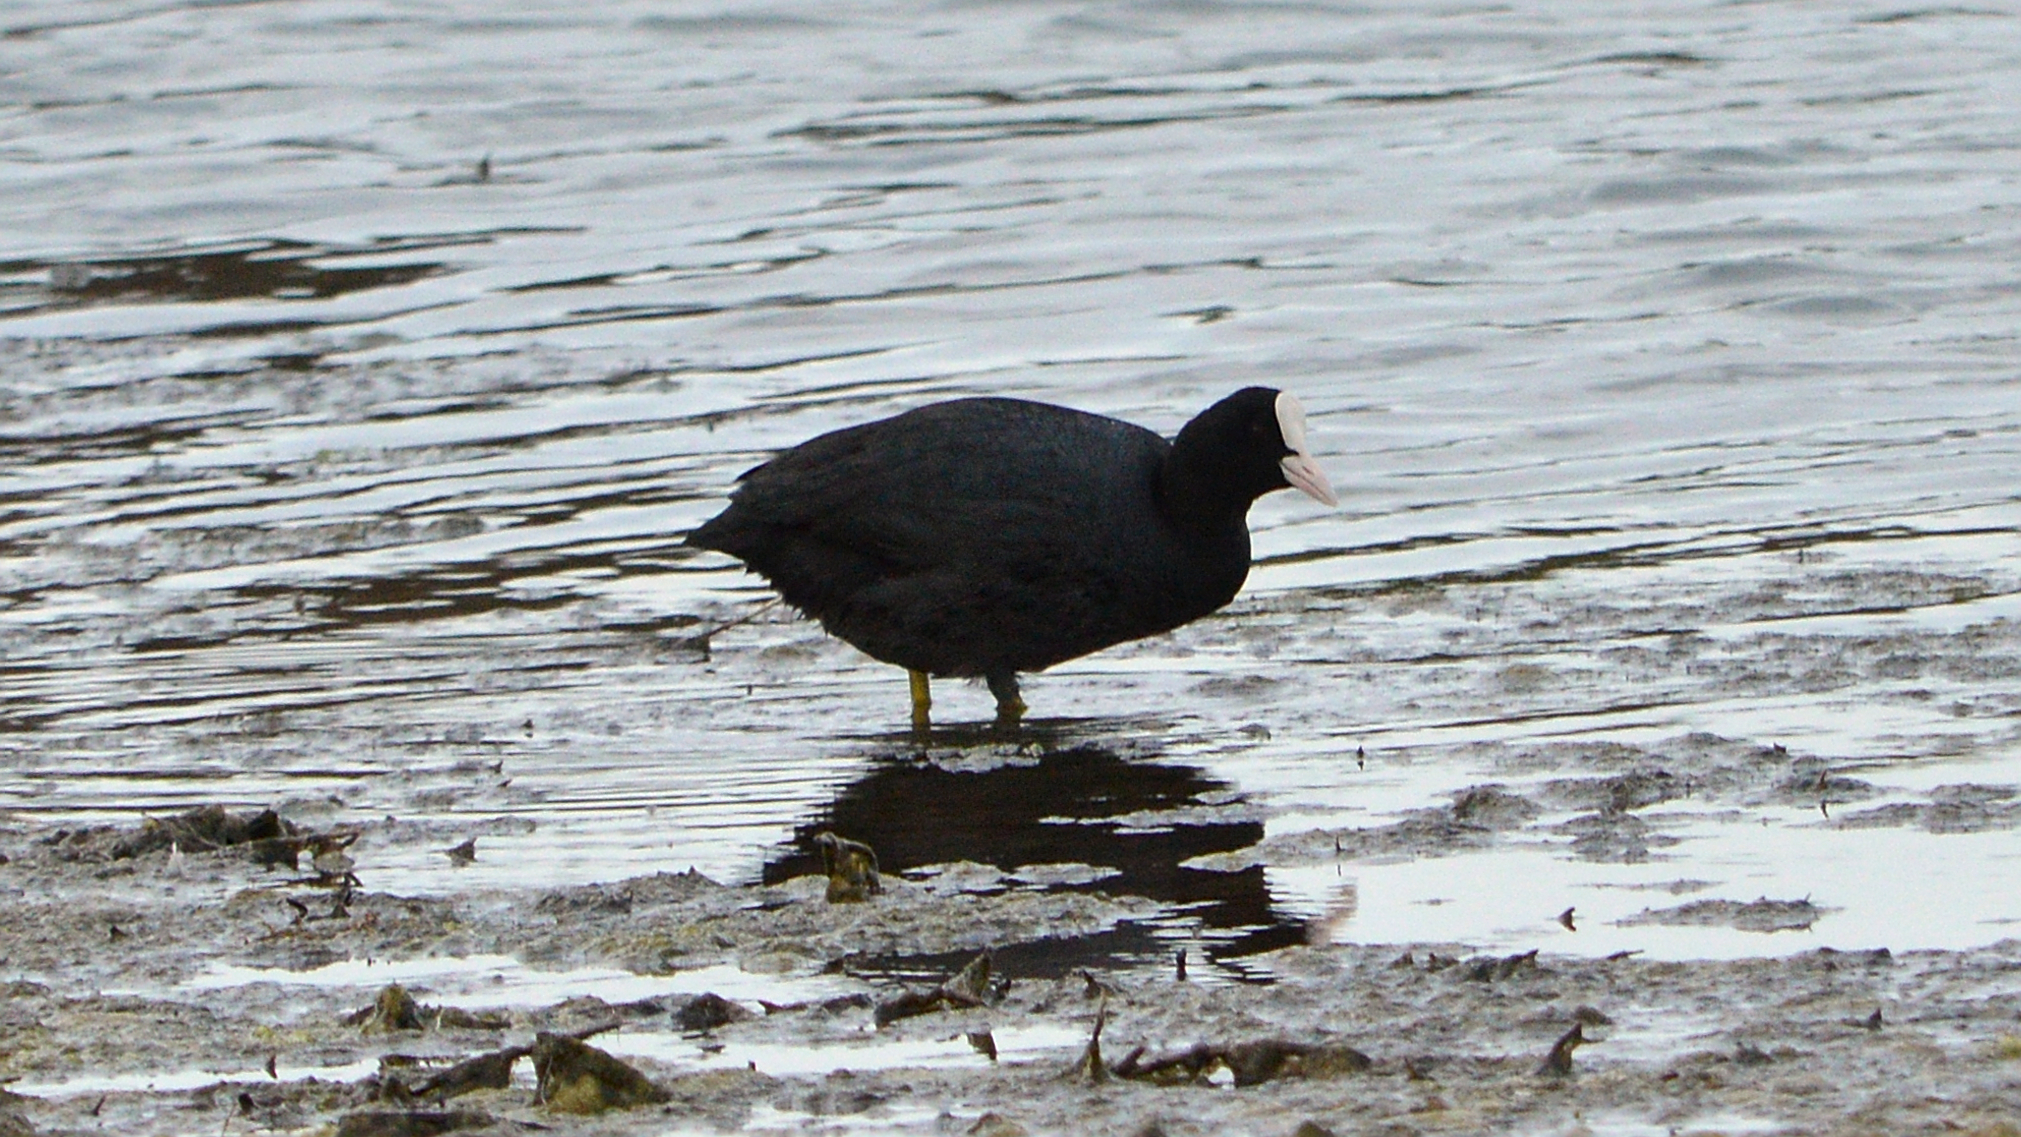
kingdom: Animalia
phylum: Chordata
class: Aves
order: Gruiformes
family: Rallidae
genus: Fulica
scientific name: Fulica atra
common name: Eurasian coot
